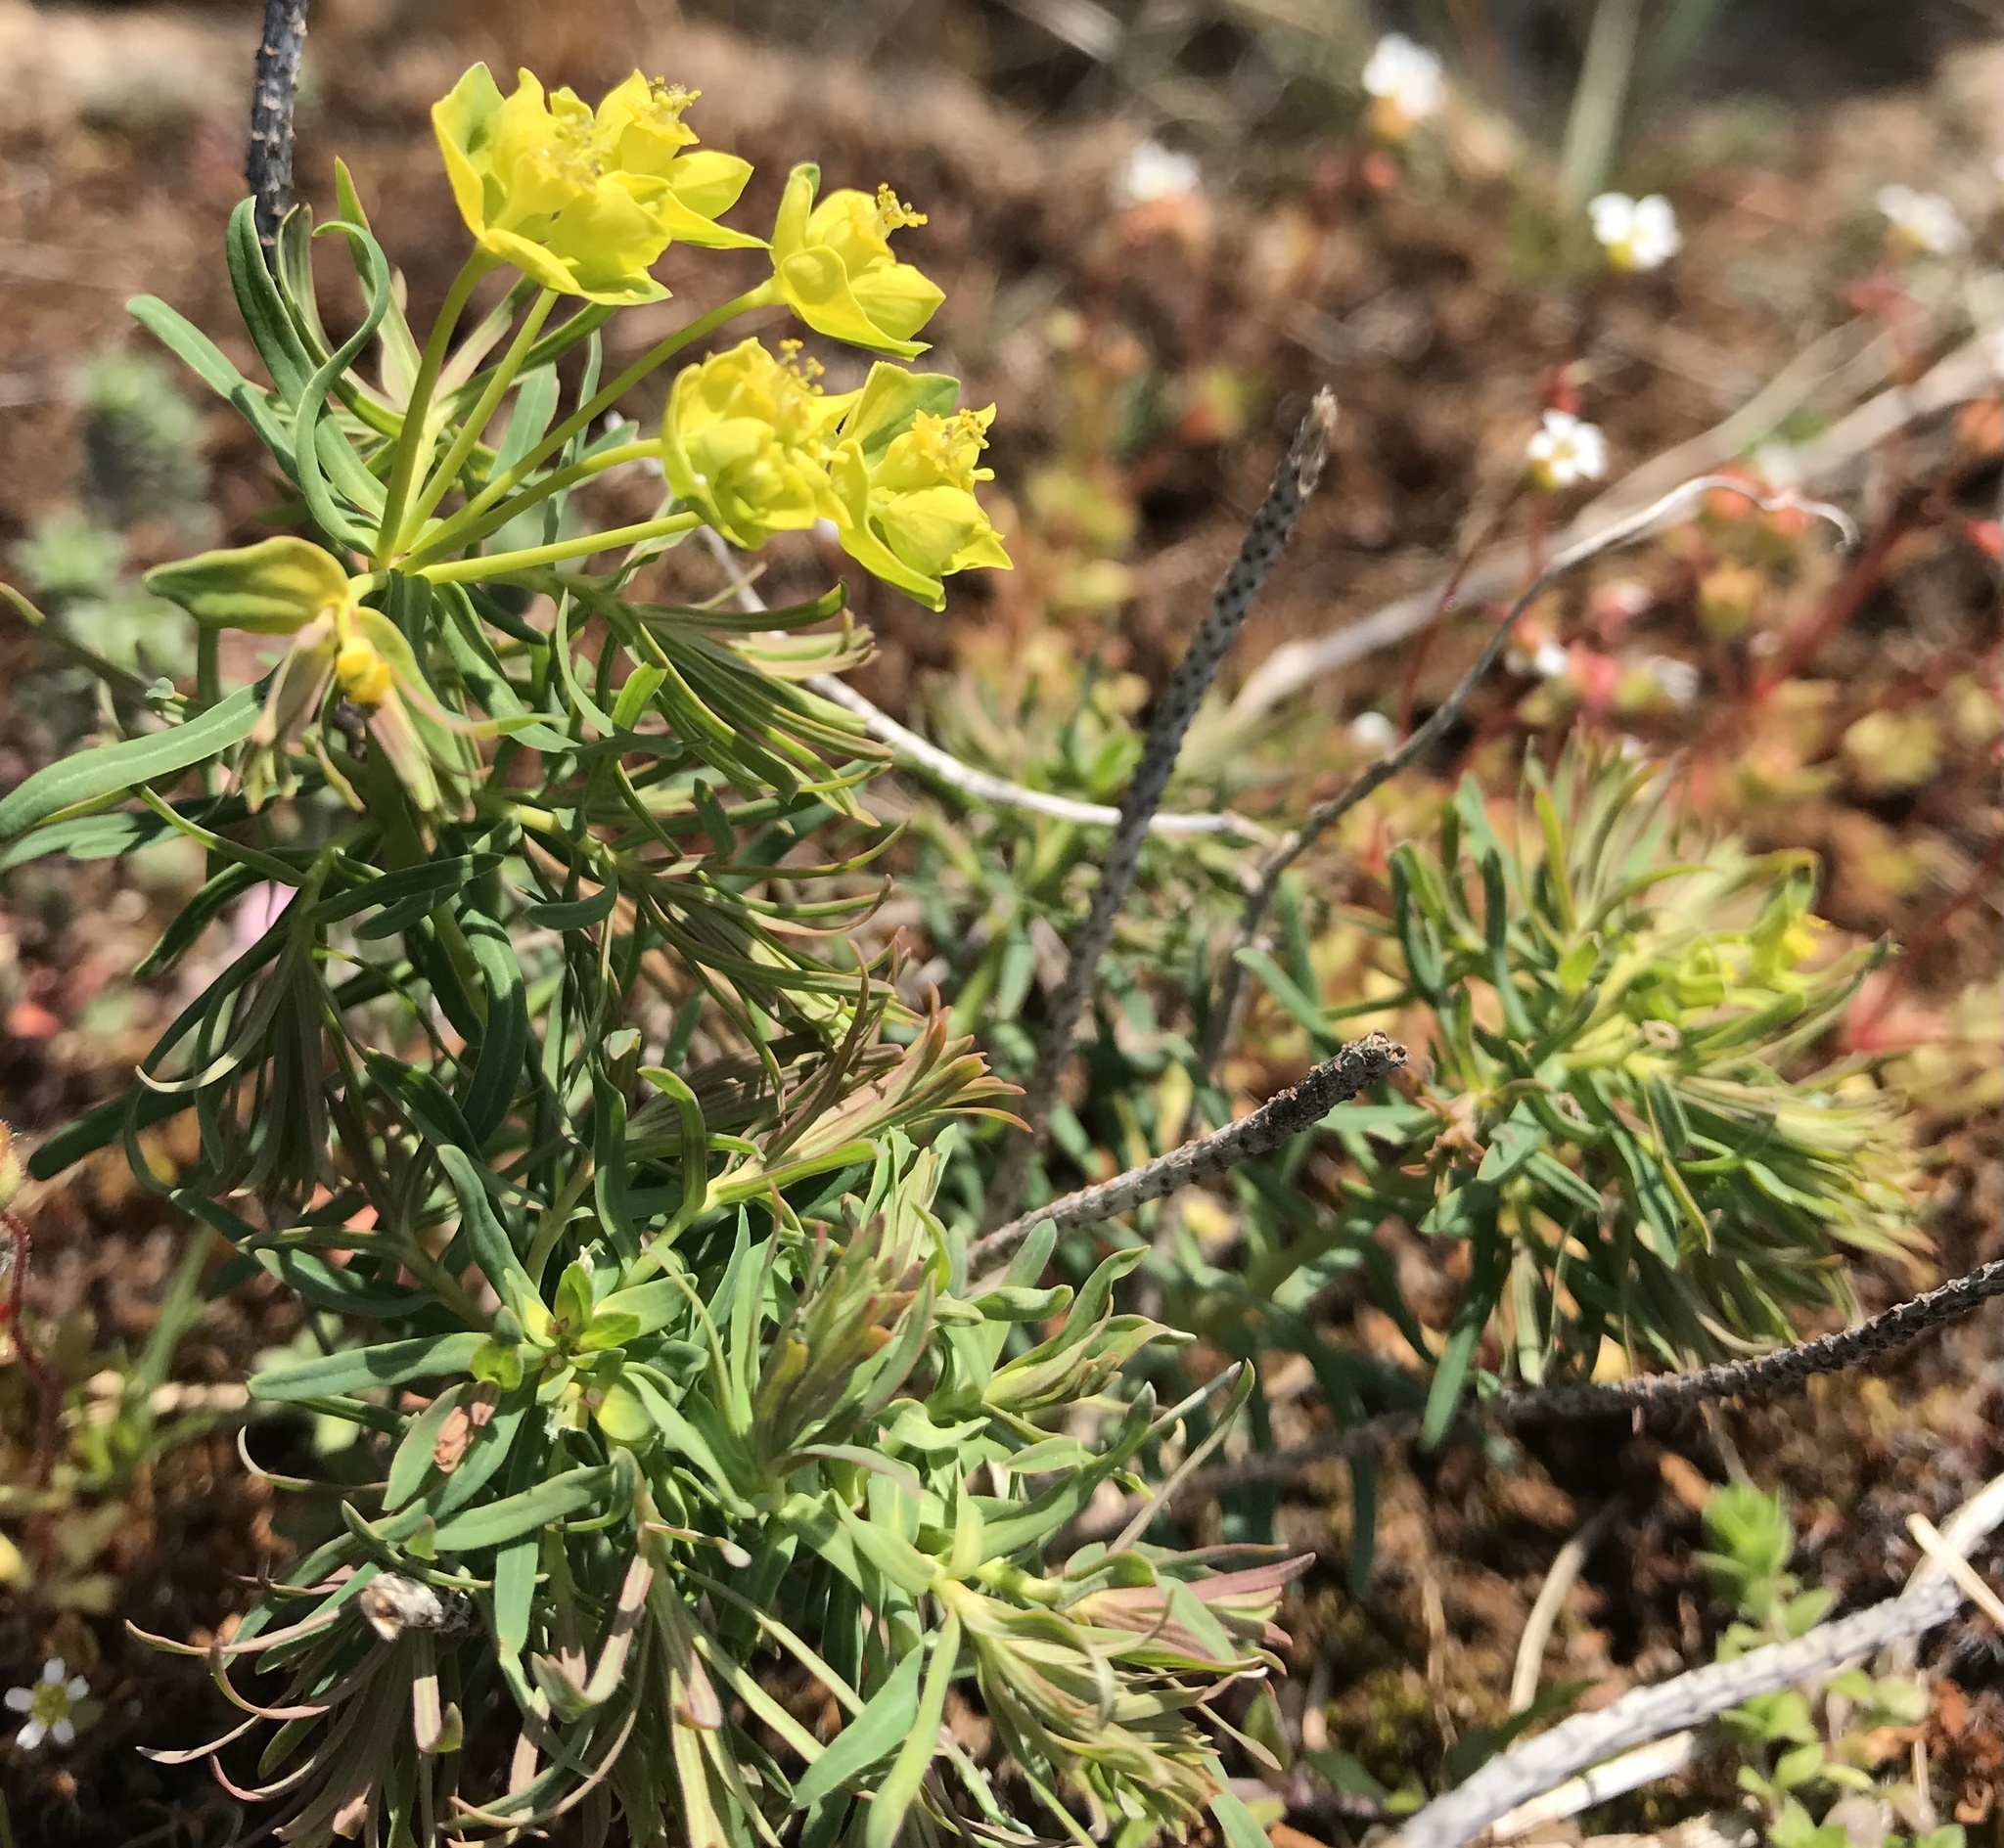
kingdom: Plantae
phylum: Tracheophyta
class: Magnoliopsida
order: Malpighiales
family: Euphorbiaceae
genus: Euphorbia
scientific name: Euphorbia cyparissias
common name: Cypress spurge
